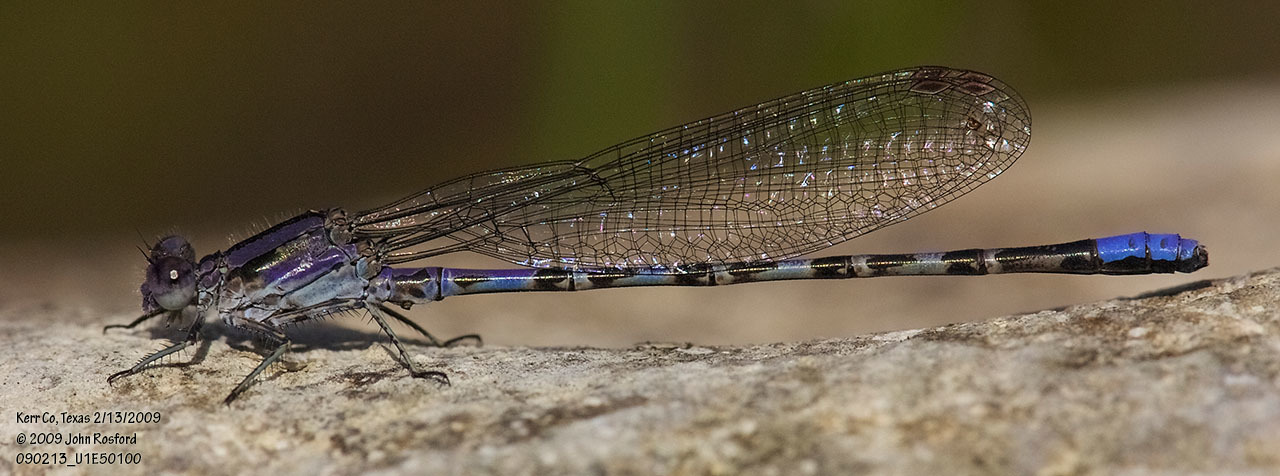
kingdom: Animalia
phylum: Arthropoda
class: Insecta
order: Odonata
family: Coenagrionidae
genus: Argia
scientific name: Argia immunda
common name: Kiowa dancer
